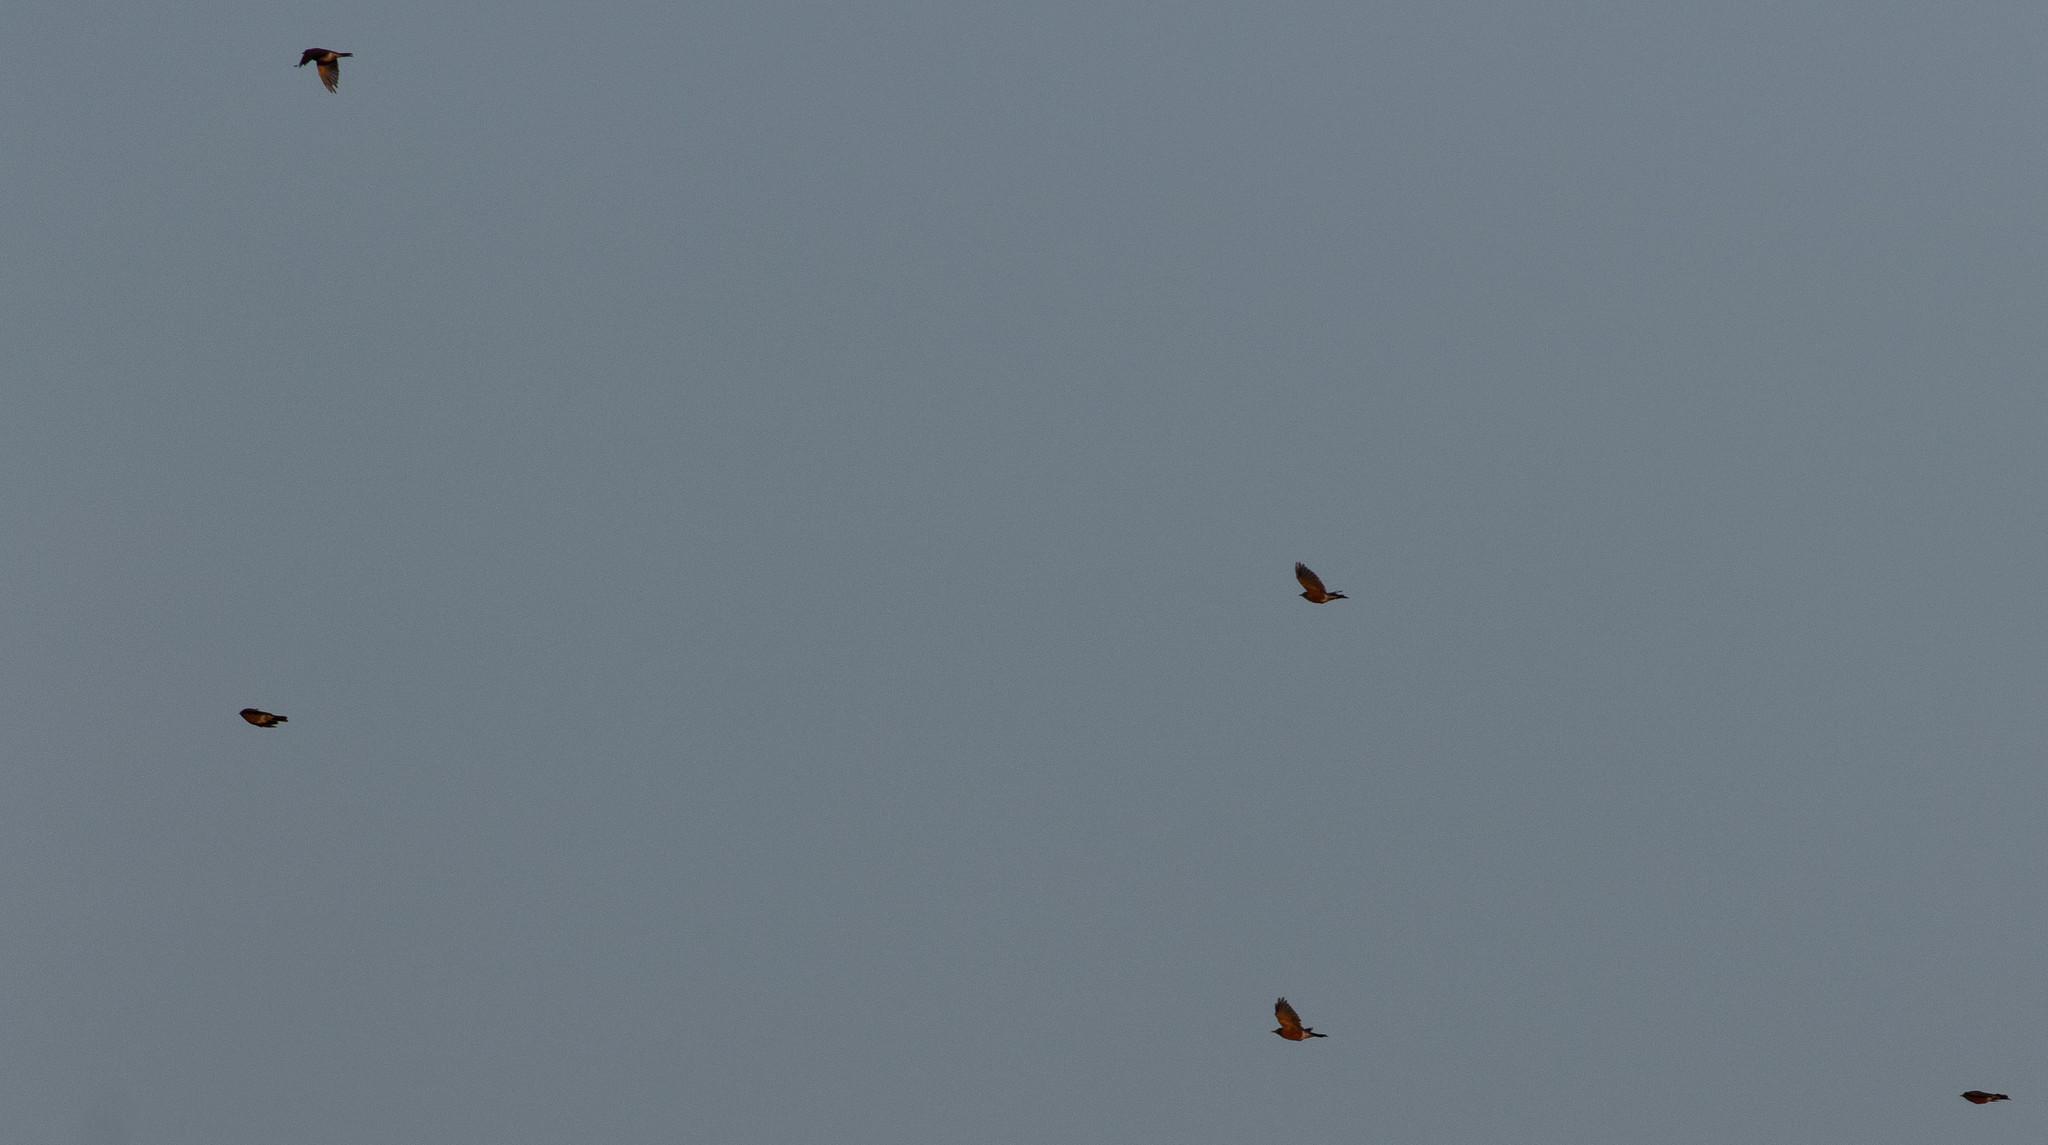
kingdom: Animalia
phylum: Chordata
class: Aves
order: Passeriformes
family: Turdidae
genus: Turdus
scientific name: Turdus migratorius
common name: American robin
